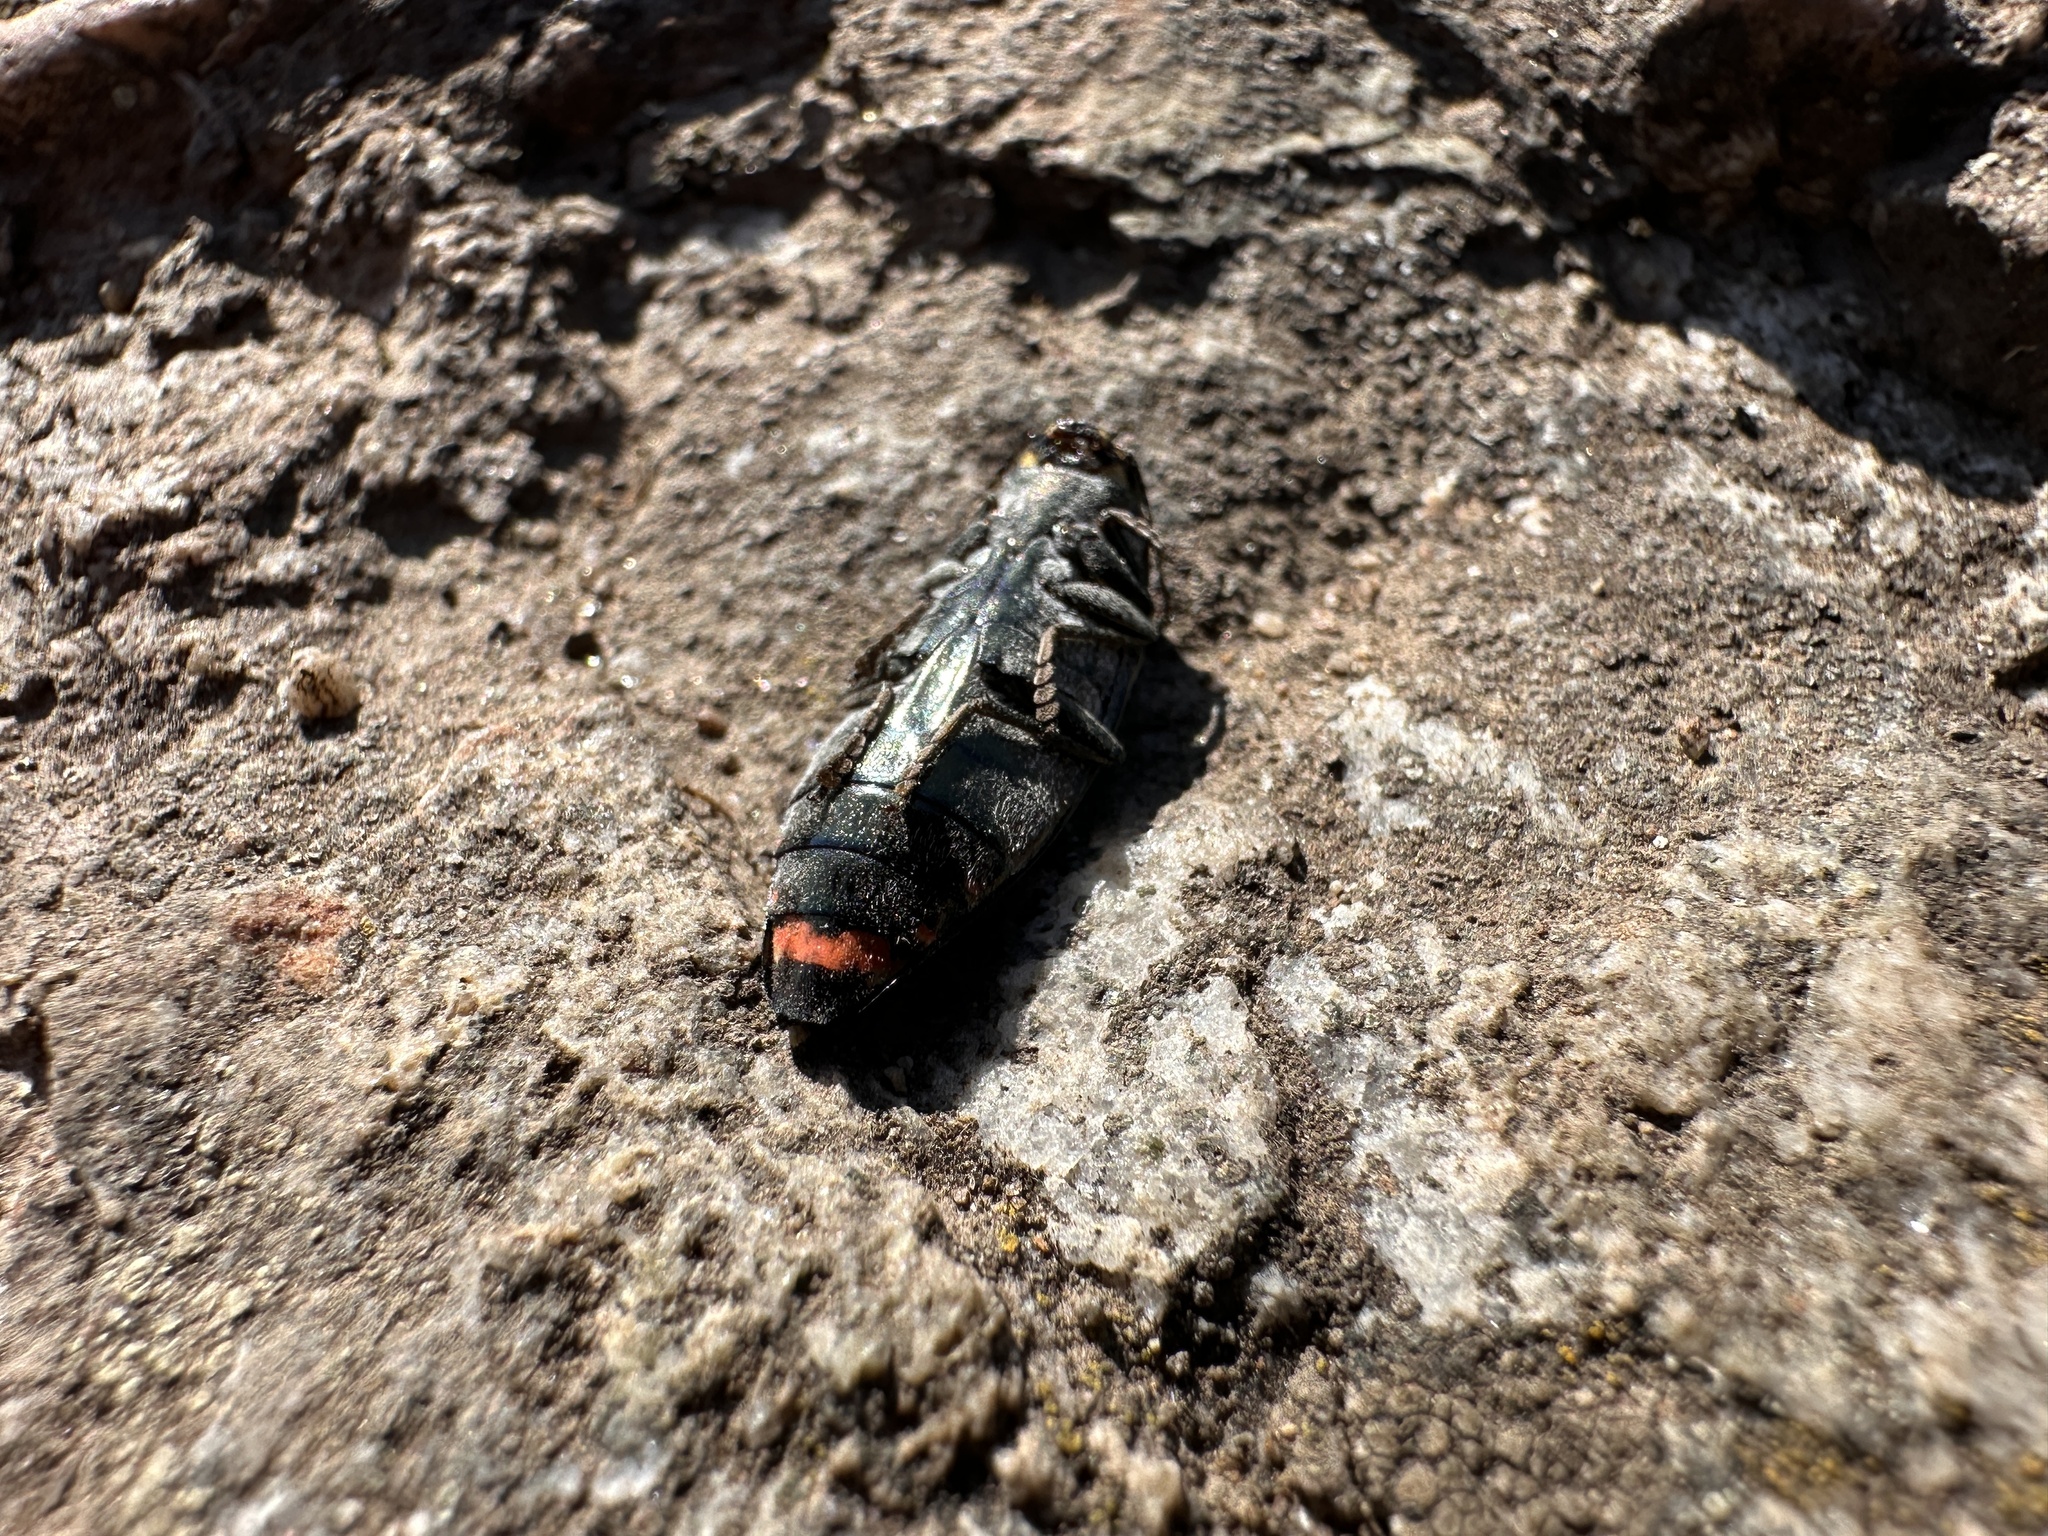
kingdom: Animalia
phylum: Arthropoda
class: Insecta
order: Coleoptera
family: Buprestidae
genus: Buprestis
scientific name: Buprestis lyrata
